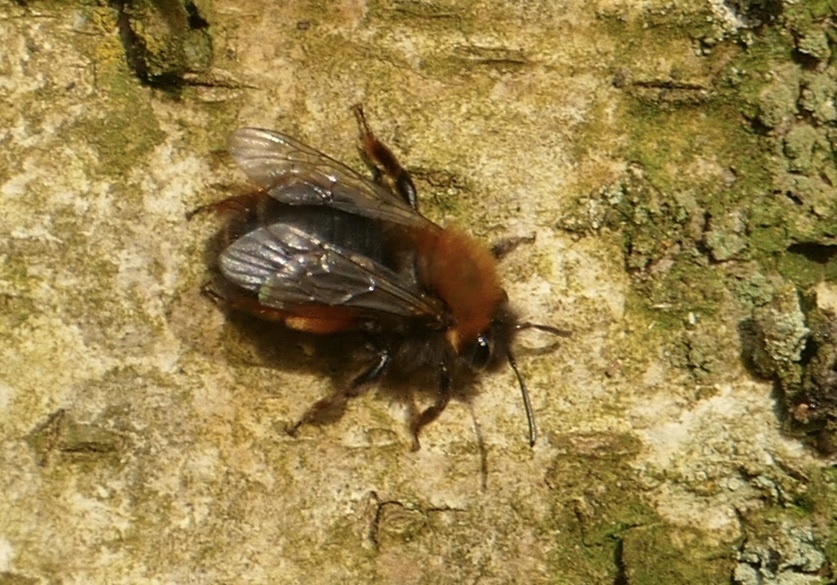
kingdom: Animalia
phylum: Arthropoda
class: Insecta
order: Hymenoptera
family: Andrenidae
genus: Andrena
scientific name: Andrena clarkella
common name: Clarke's mining bee
